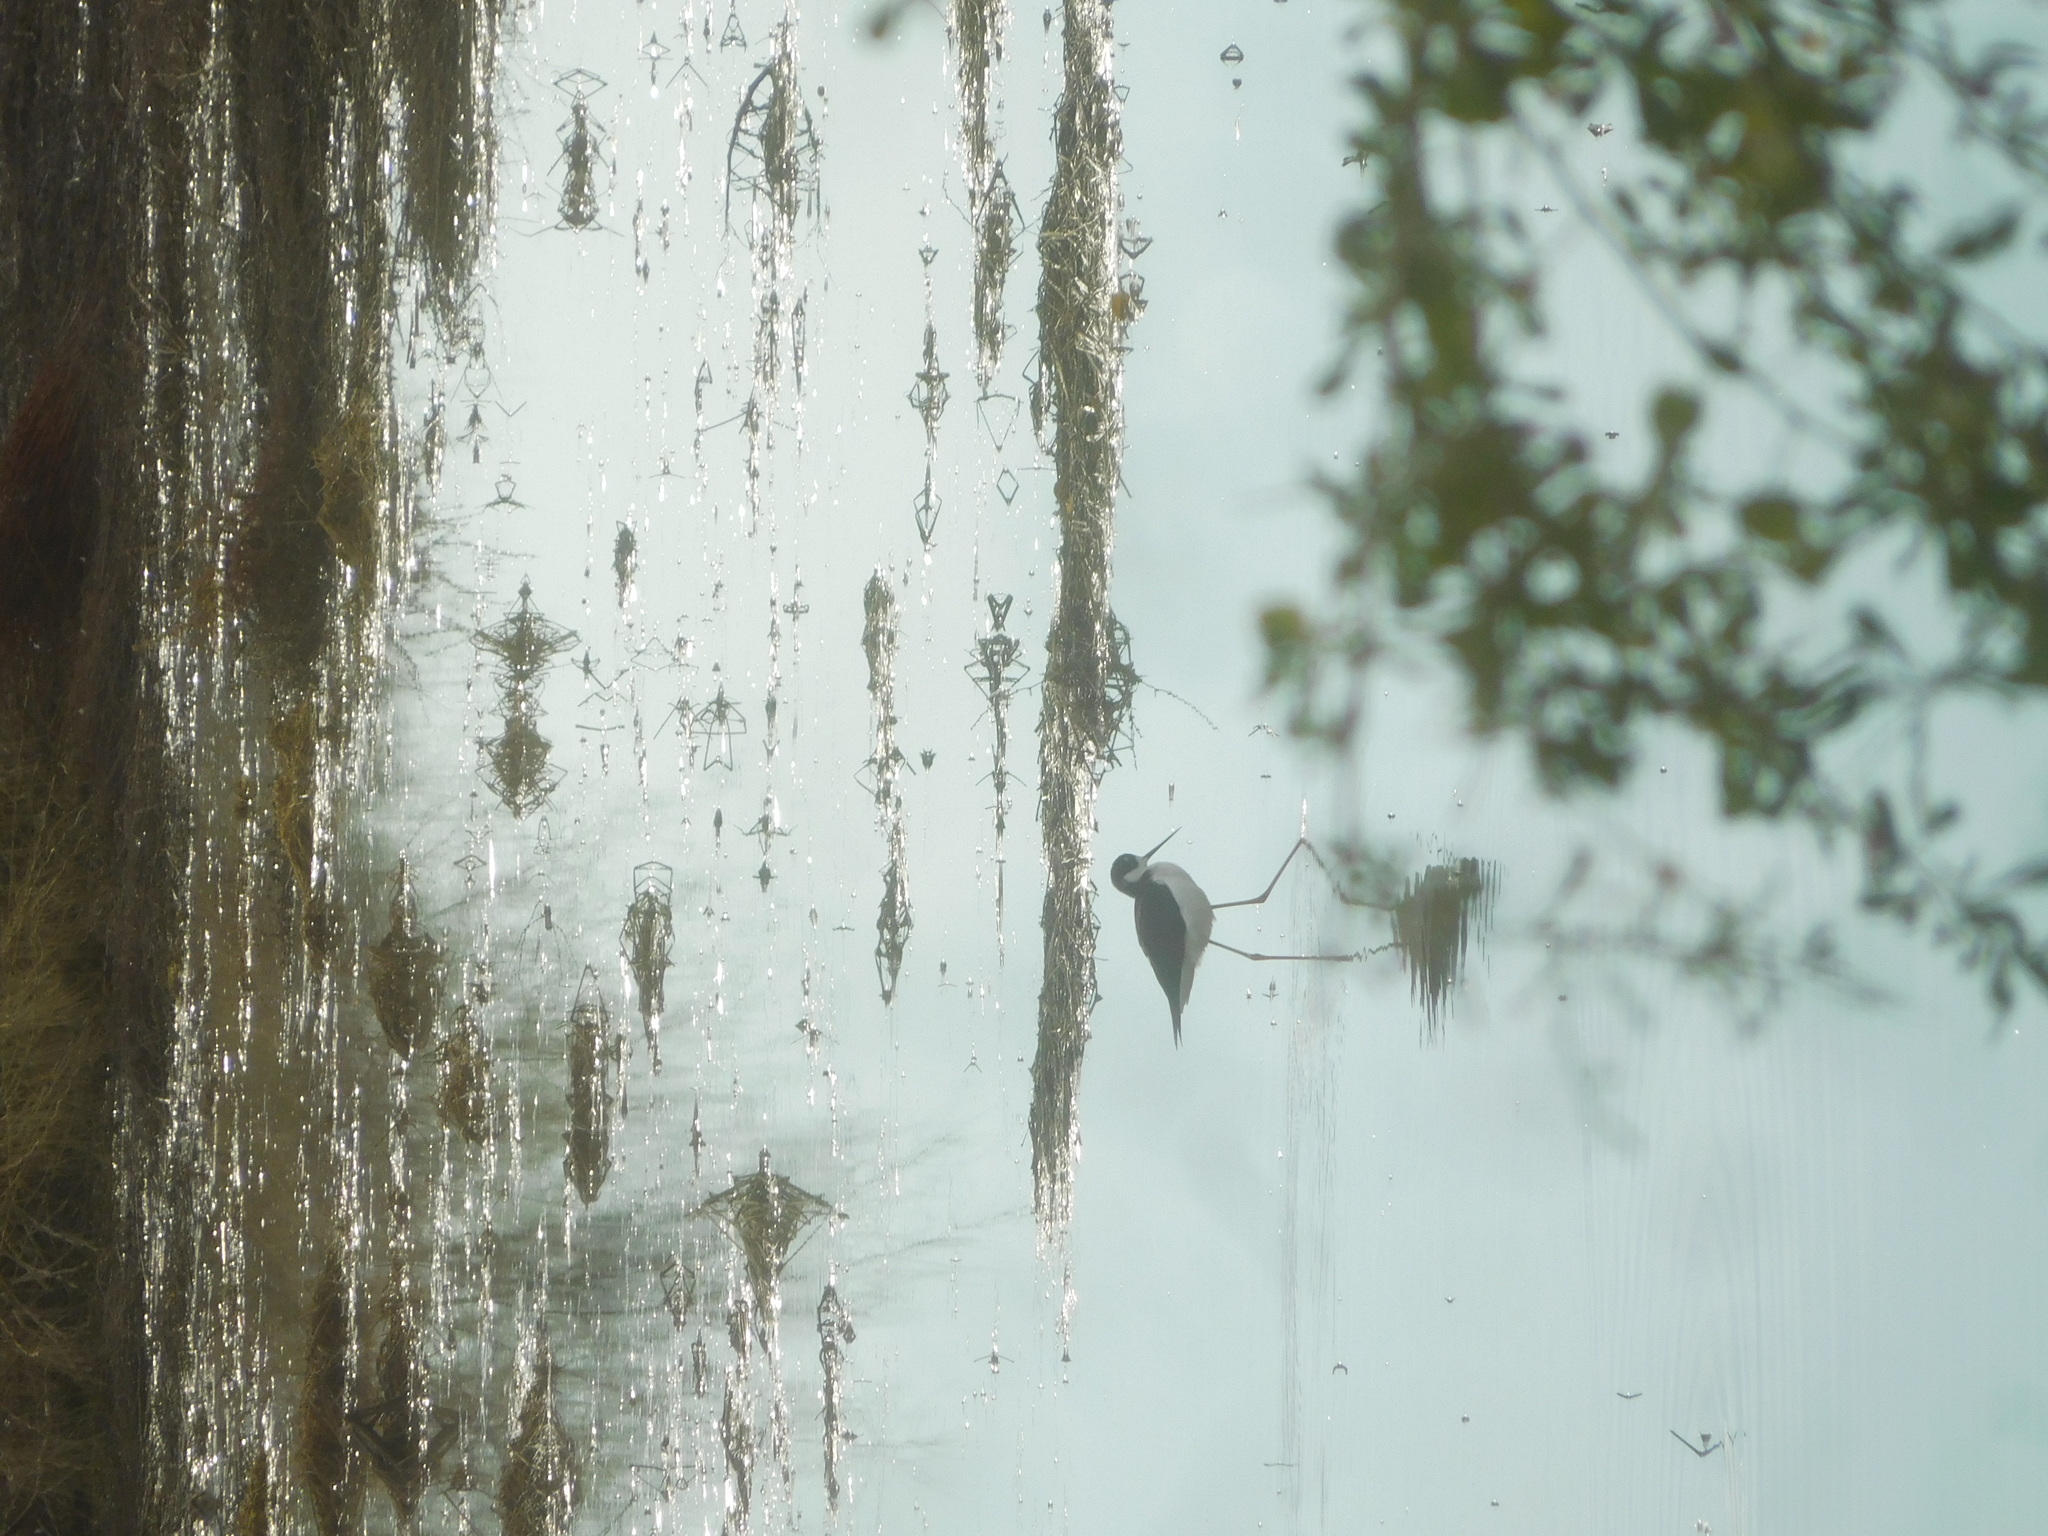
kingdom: Animalia
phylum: Chordata
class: Aves
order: Charadriiformes
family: Recurvirostridae
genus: Himantopus
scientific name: Himantopus mexicanus
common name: Black-necked stilt
